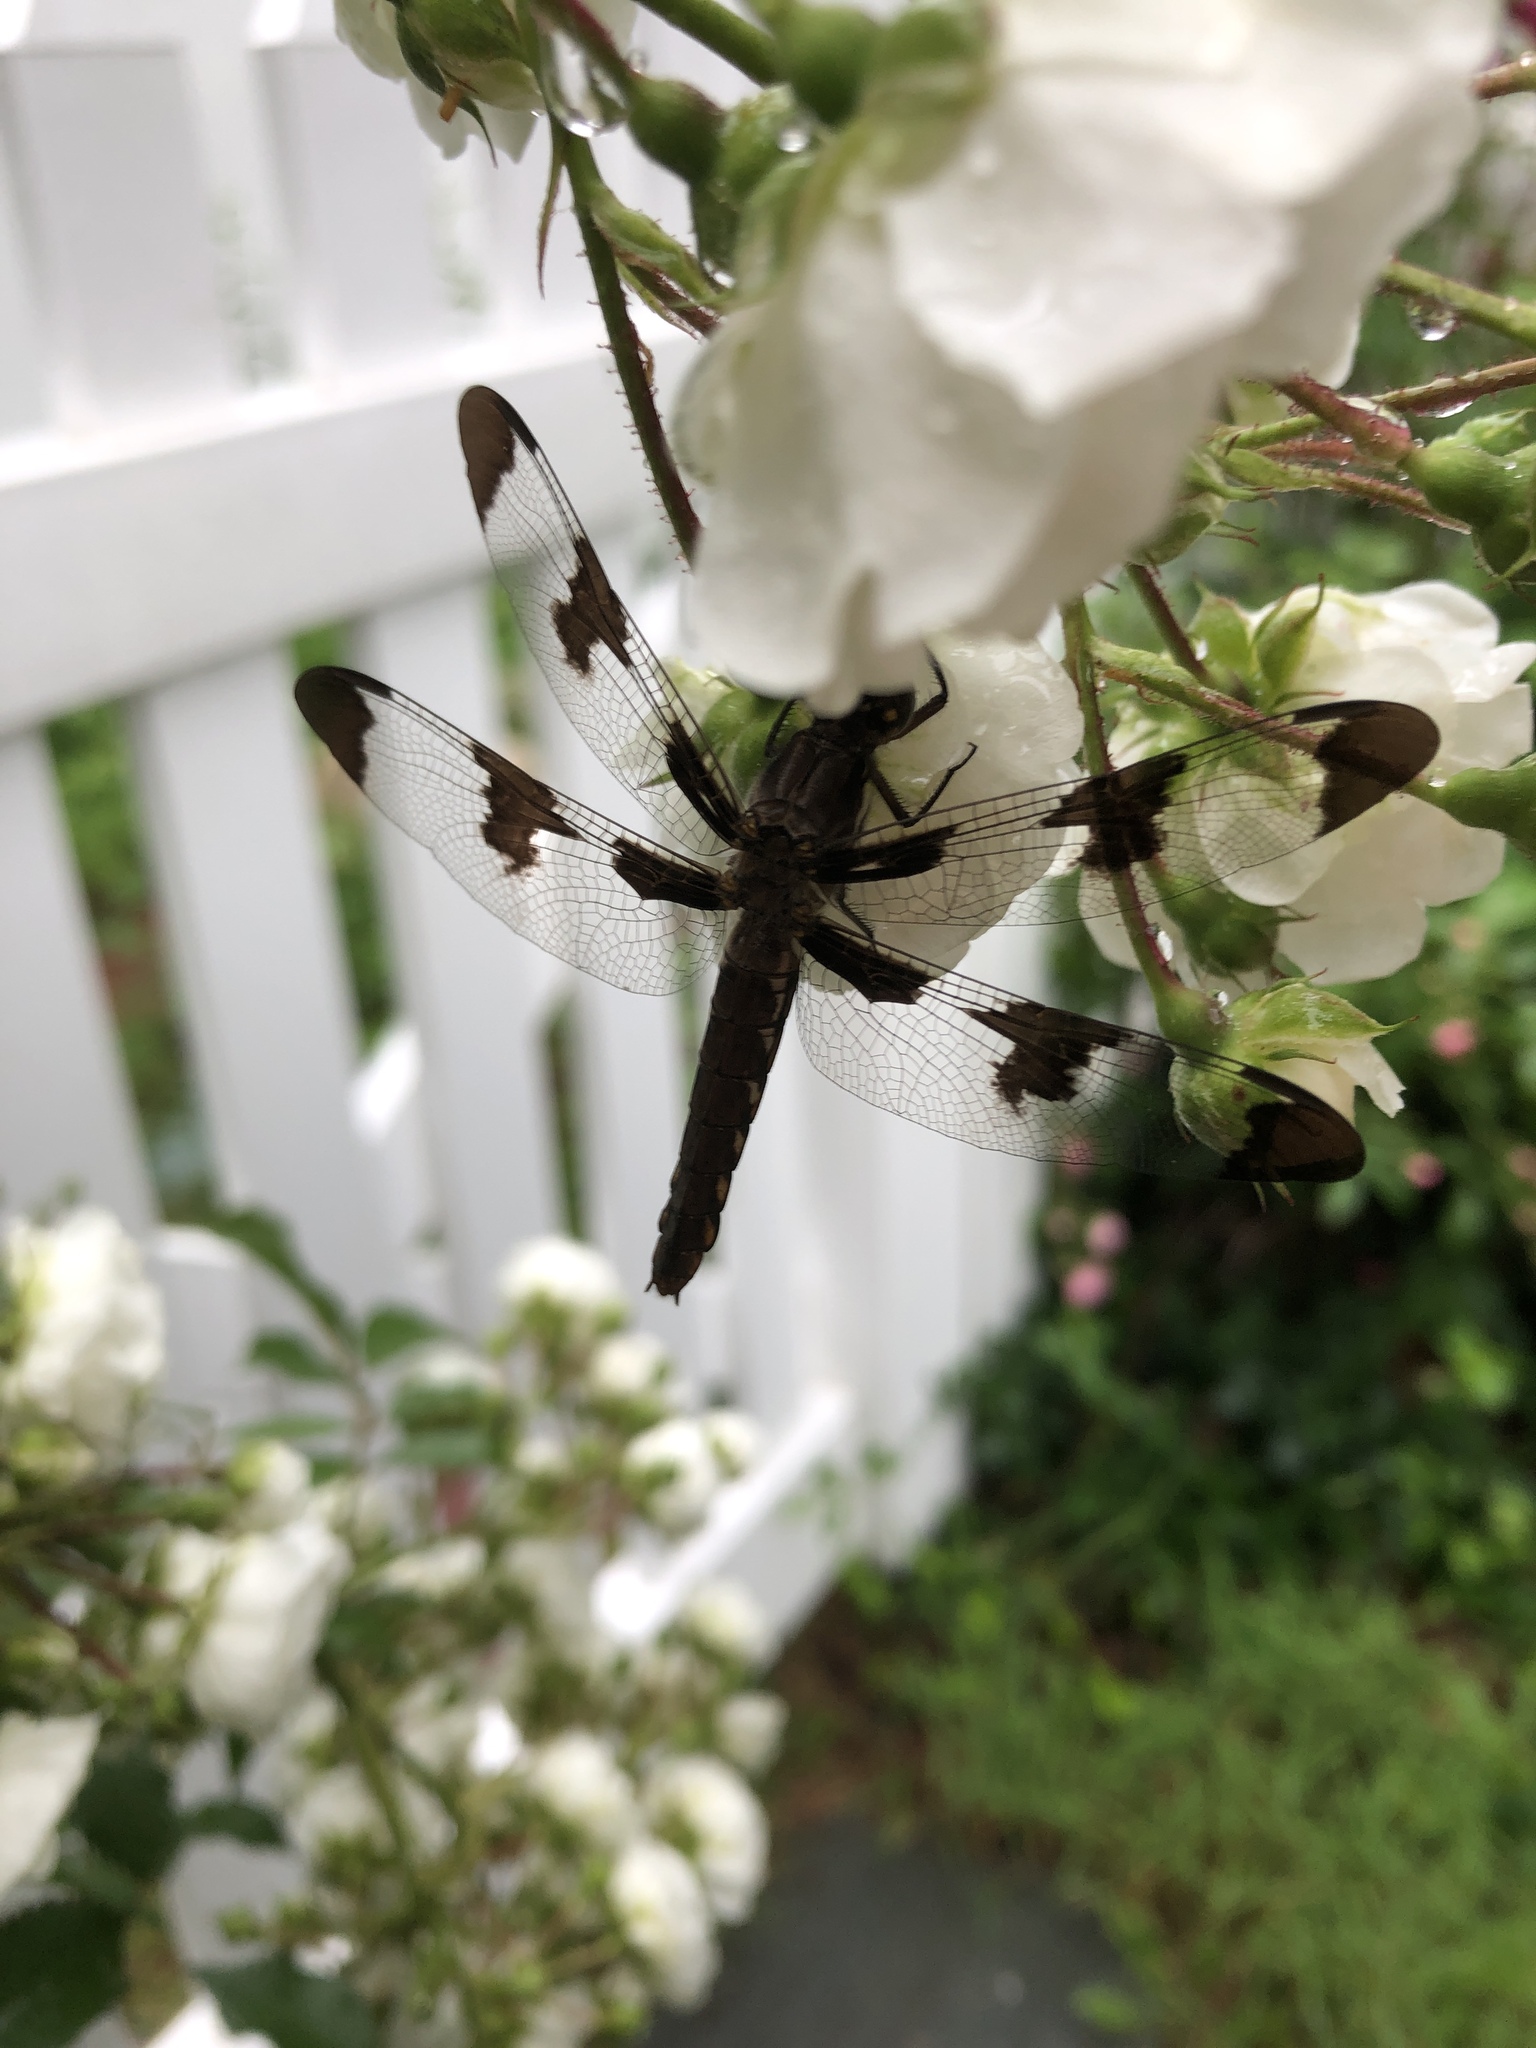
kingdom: Animalia
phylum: Arthropoda
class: Insecta
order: Odonata
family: Libellulidae
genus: Plathemis
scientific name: Plathemis lydia
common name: Common whitetail
